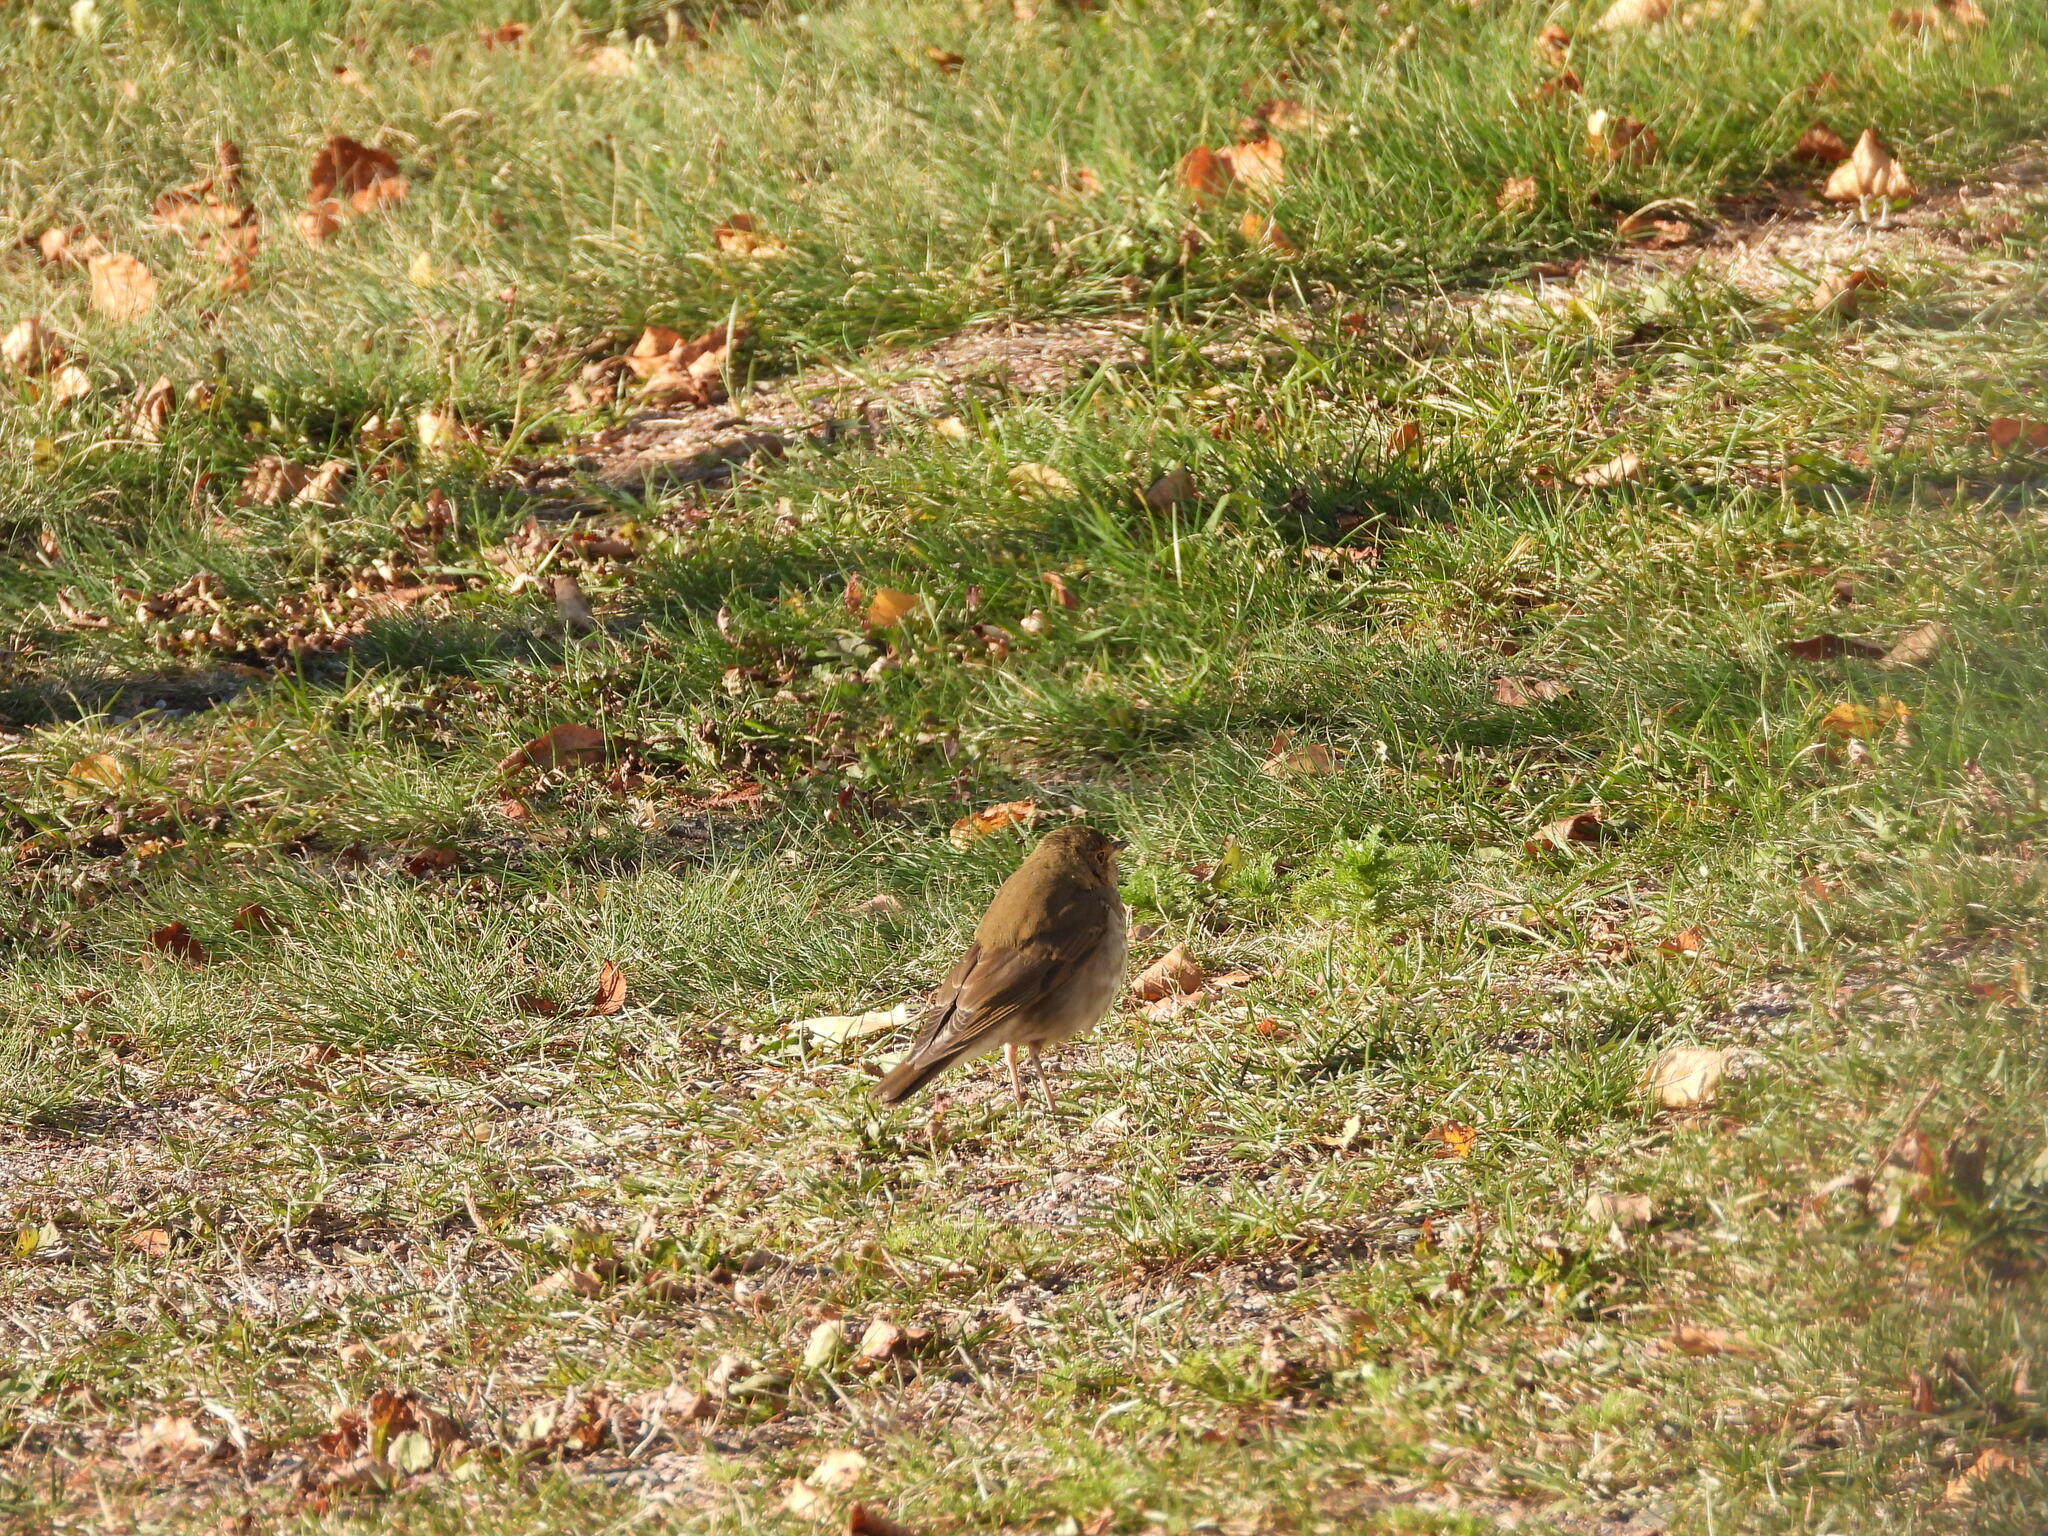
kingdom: Animalia
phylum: Chordata
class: Aves
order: Passeriformes
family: Turdidae
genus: Catharus
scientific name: Catharus ustulatus
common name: Swainson's thrush
